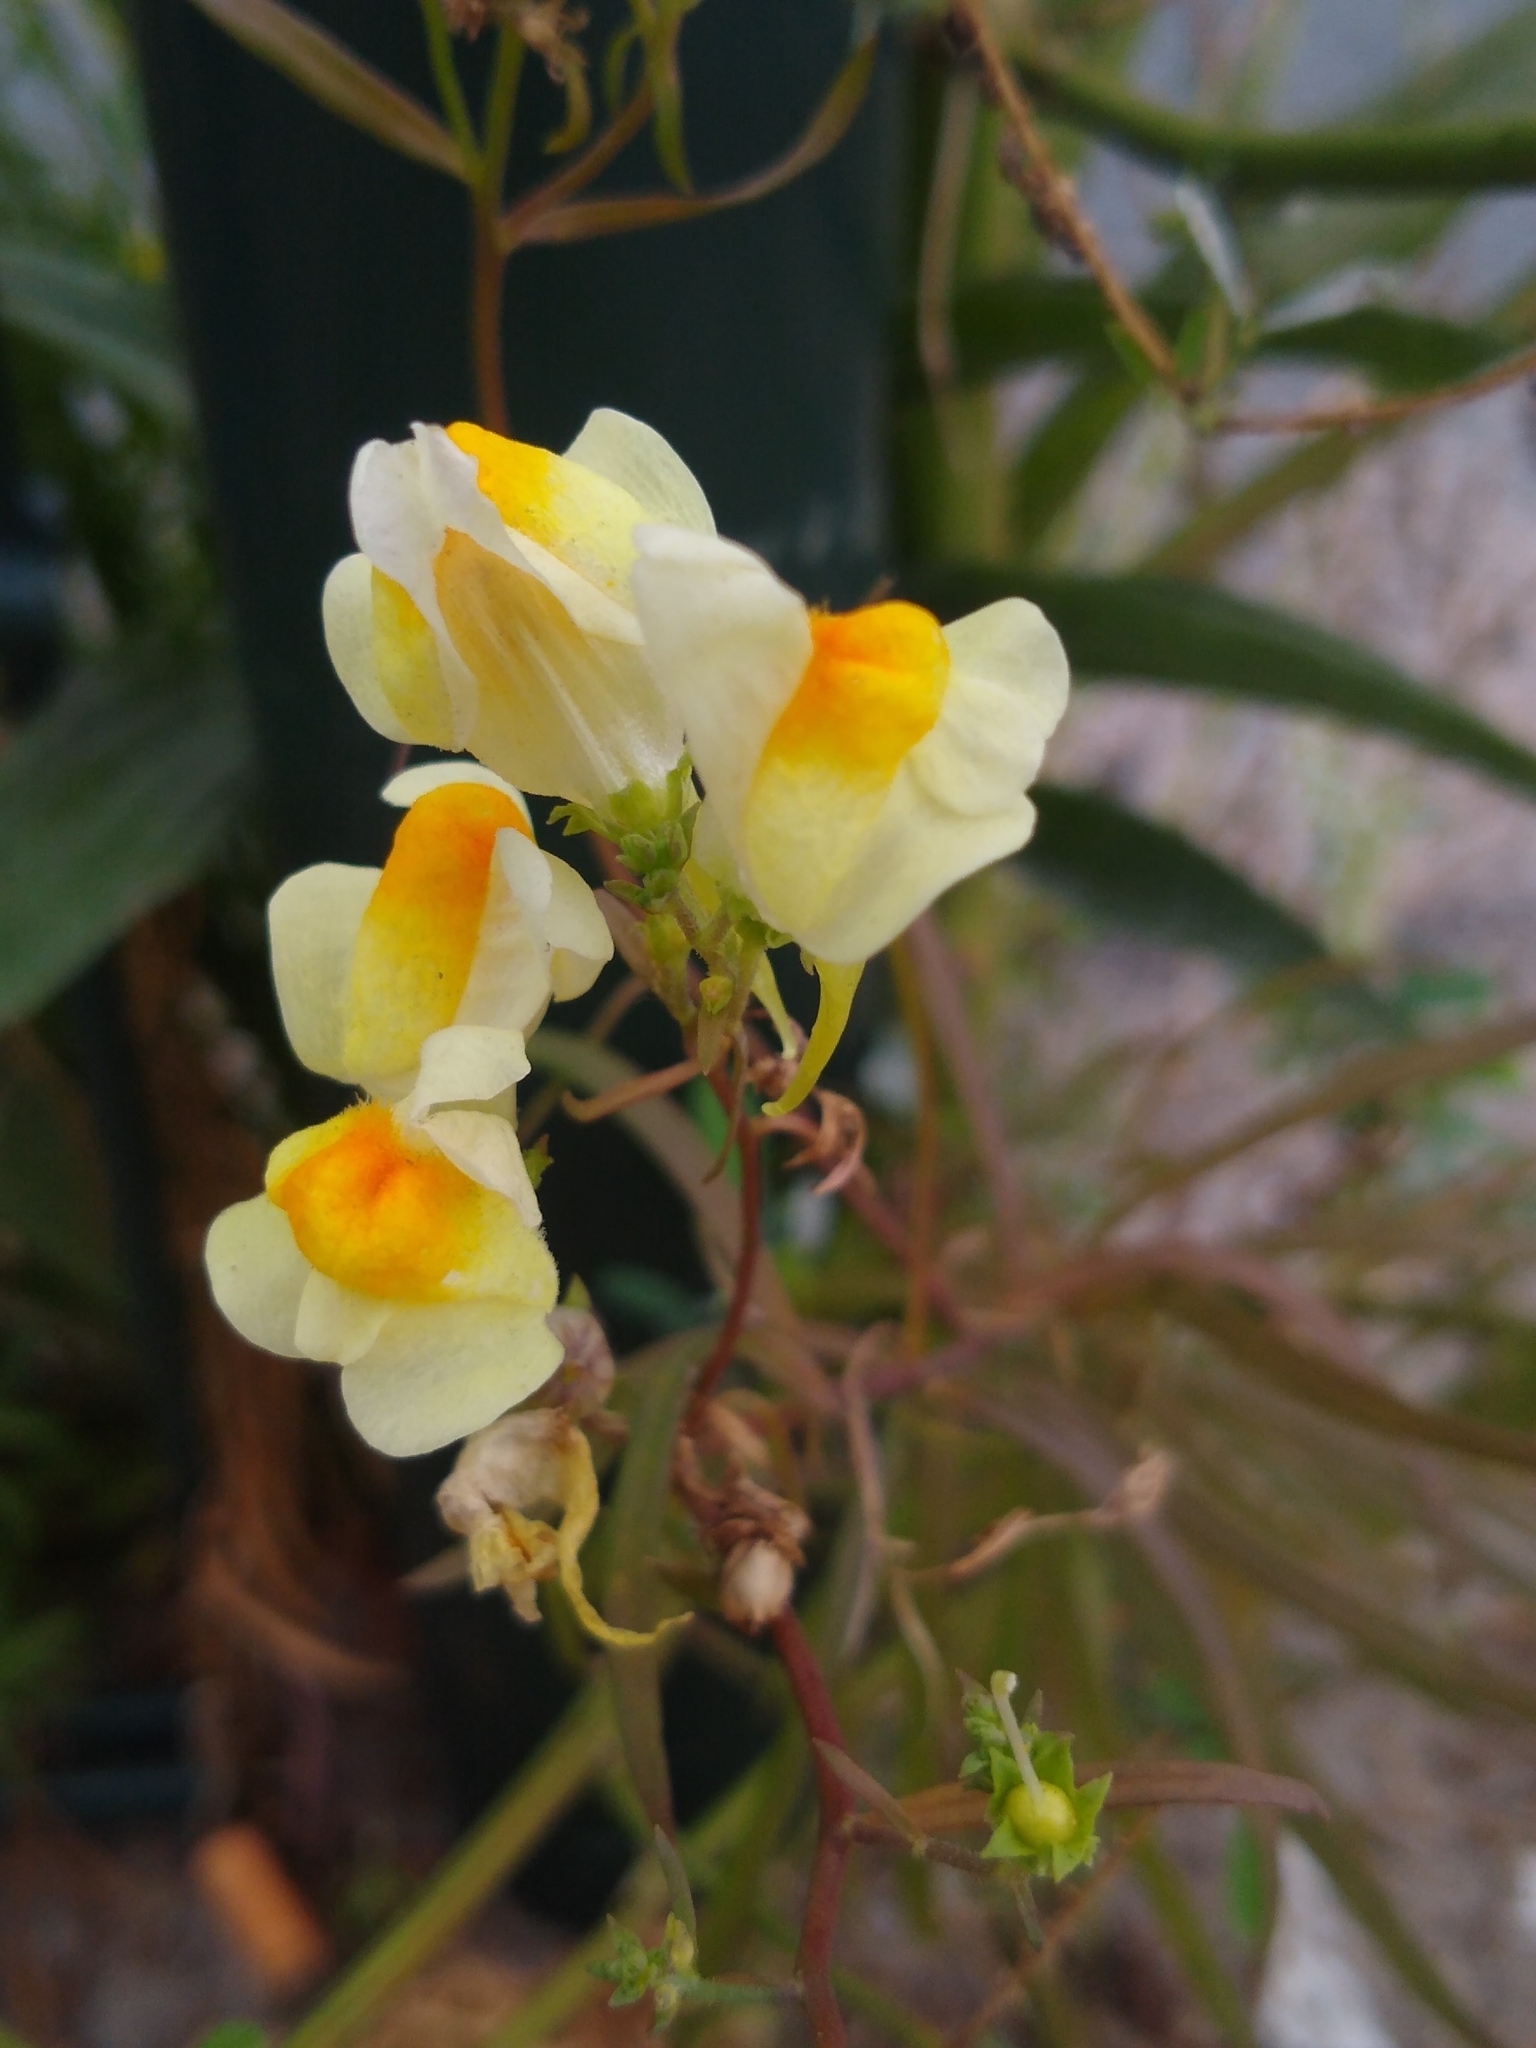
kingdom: Plantae
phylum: Tracheophyta
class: Magnoliopsida
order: Lamiales
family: Plantaginaceae
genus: Linaria
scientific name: Linaria vulgaris
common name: Butter and eggs
